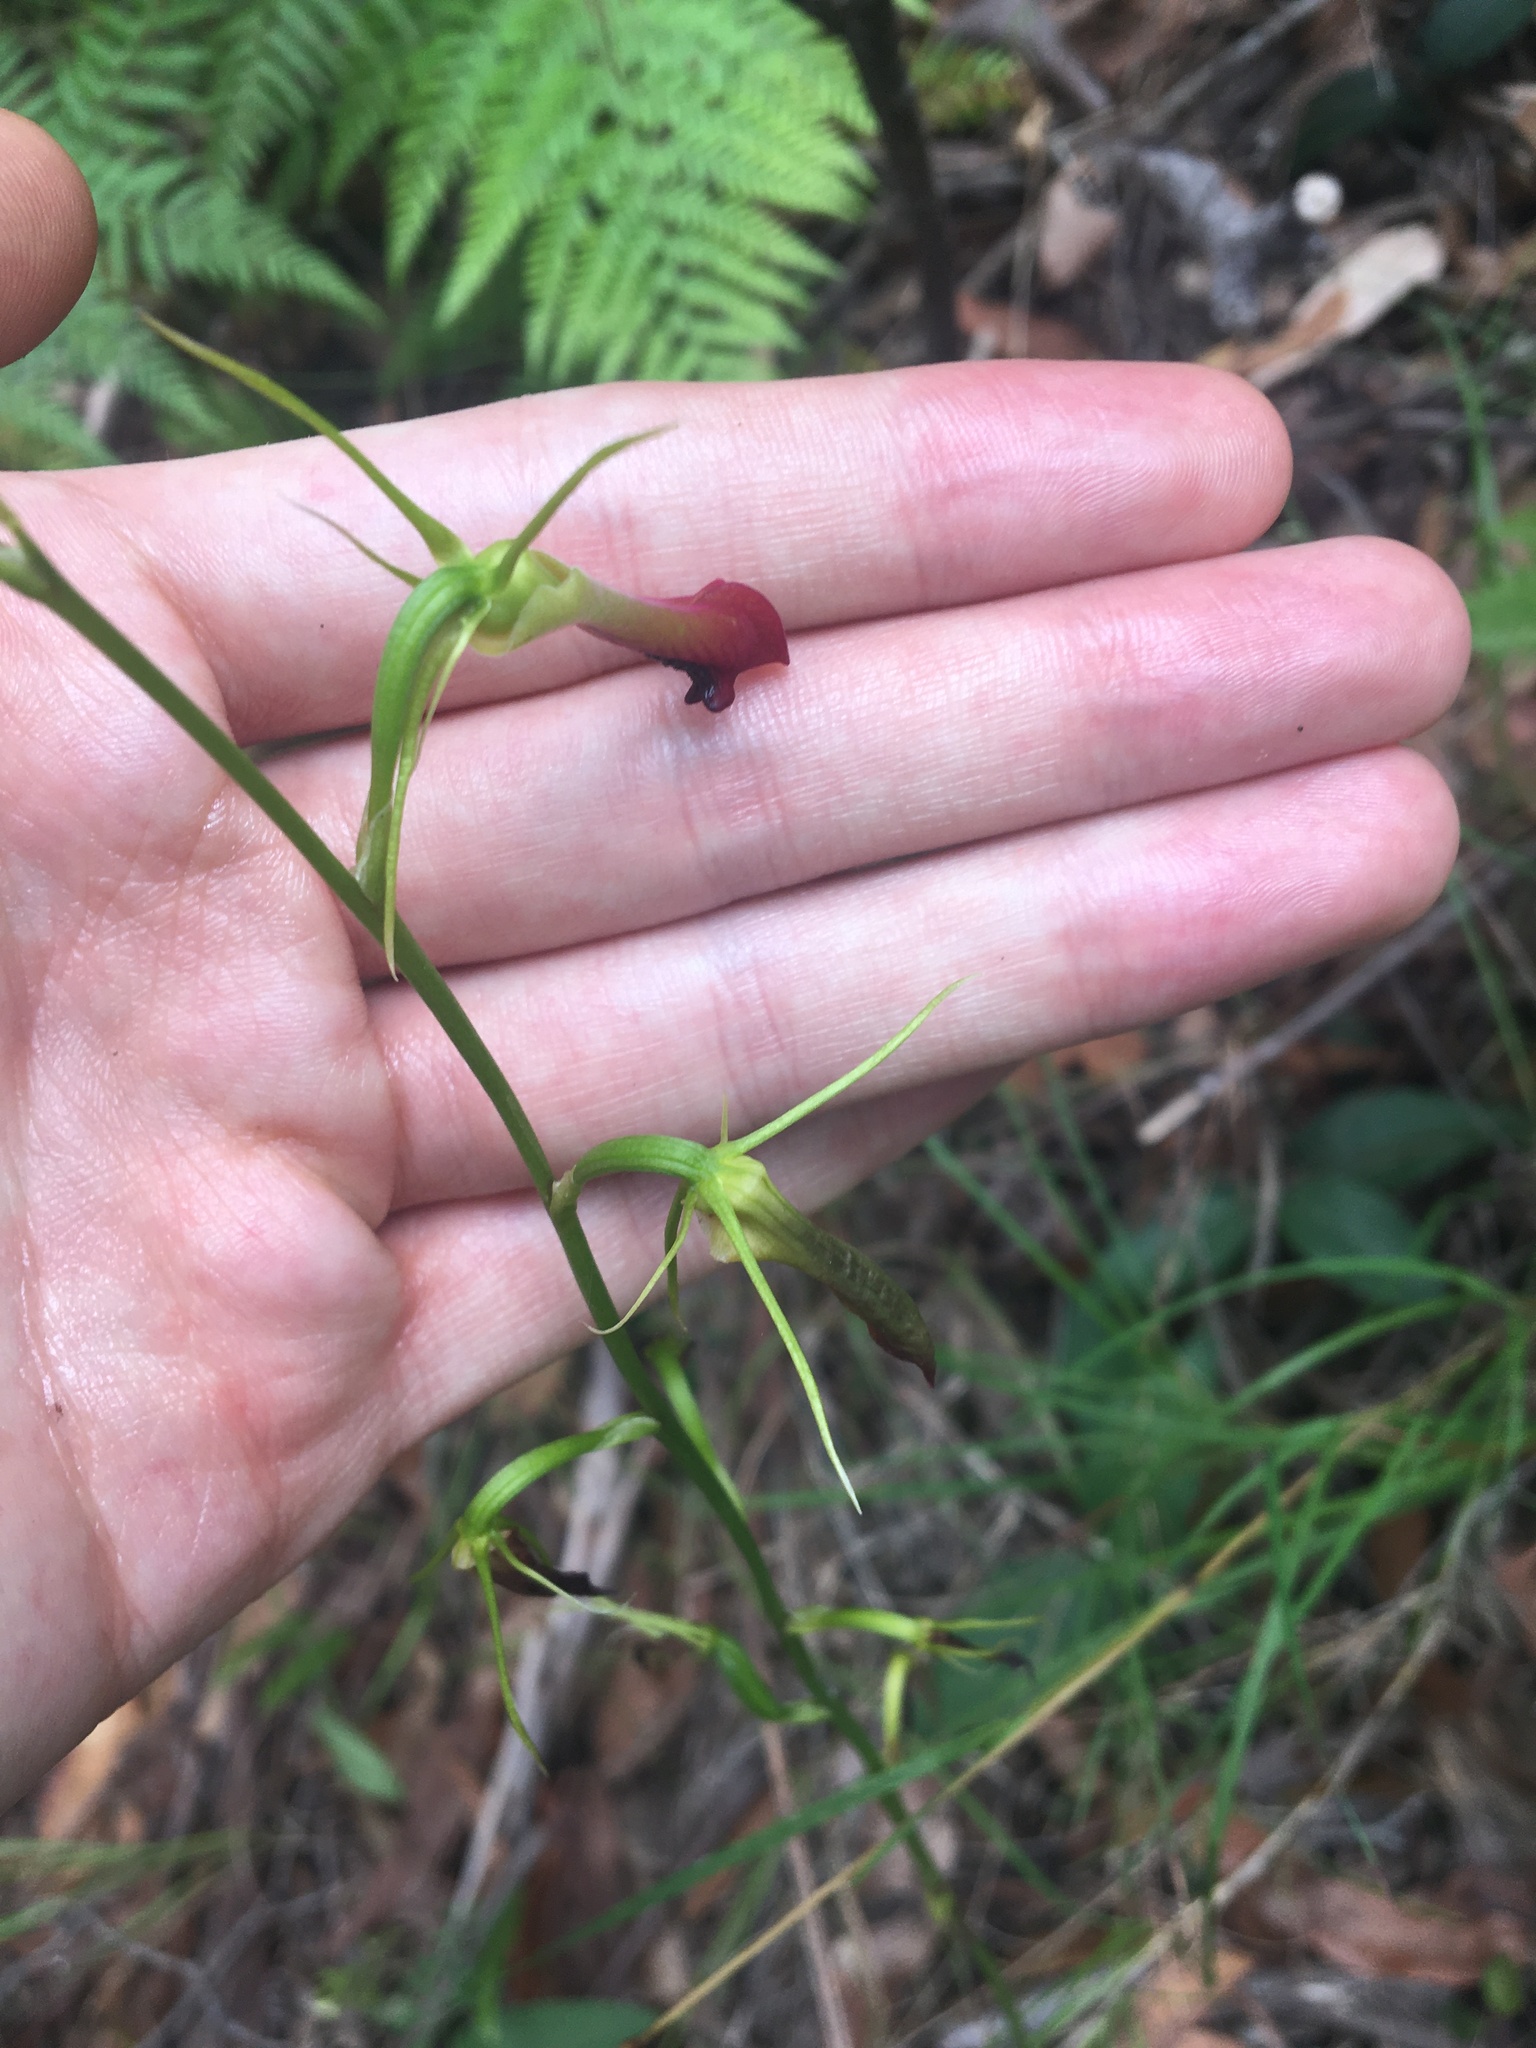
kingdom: Plantae
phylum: Tracheophyta
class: Liliopsida
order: Asparagales
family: Orchidaceae
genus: Cryptostylis
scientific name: Cryptostylis subulata
